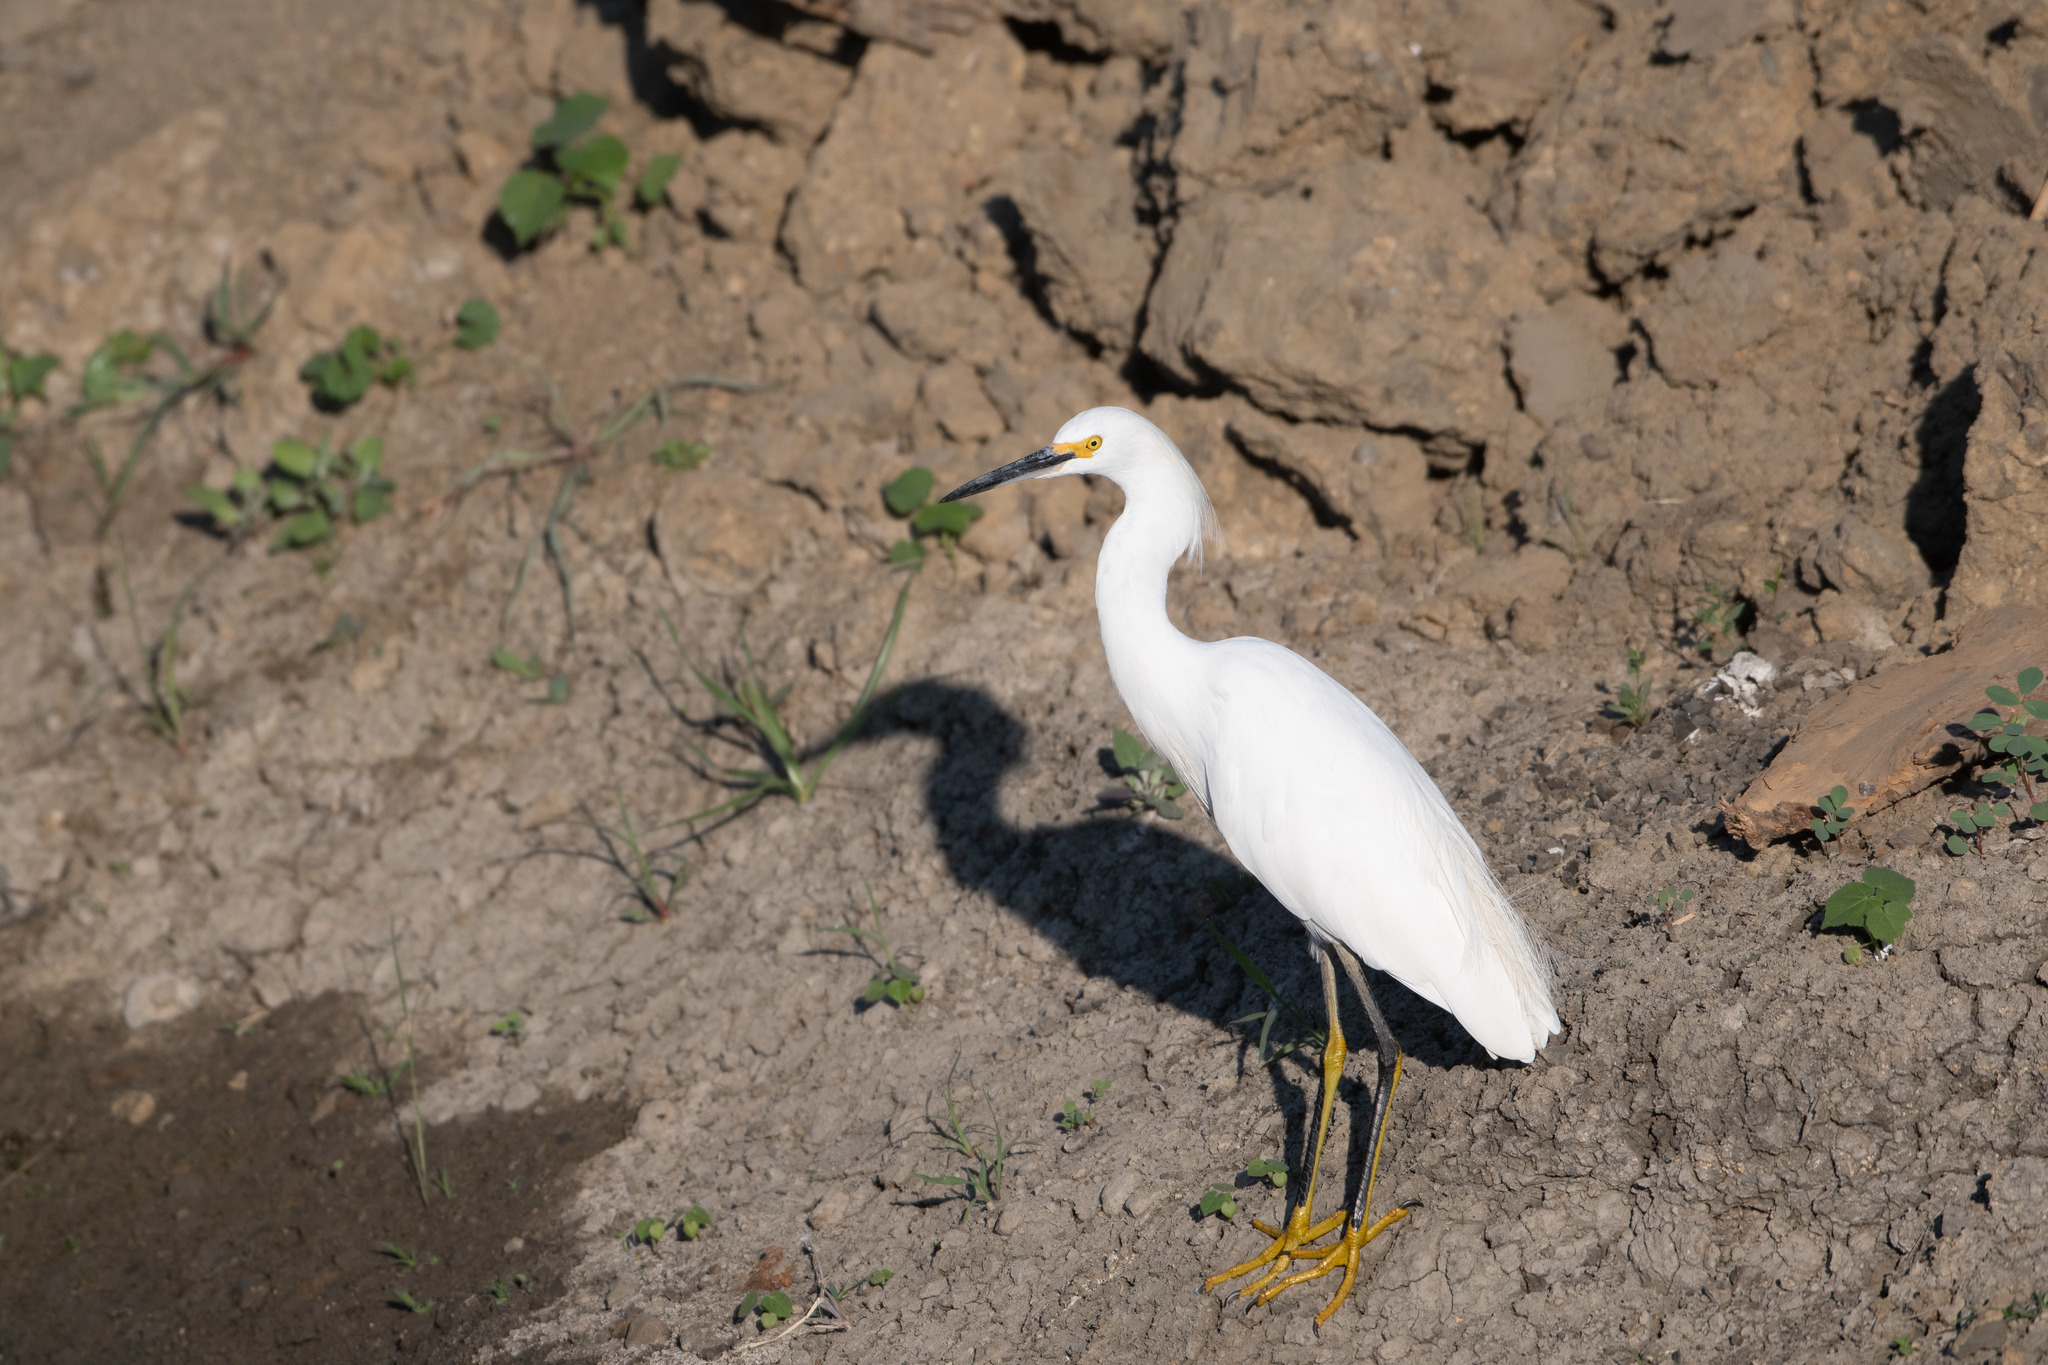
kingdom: Animalia
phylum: Chordata
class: Aves
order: Pelecaniformes
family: Ardeidae
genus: Egretta
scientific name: Egretta thula
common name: Snowy egret
